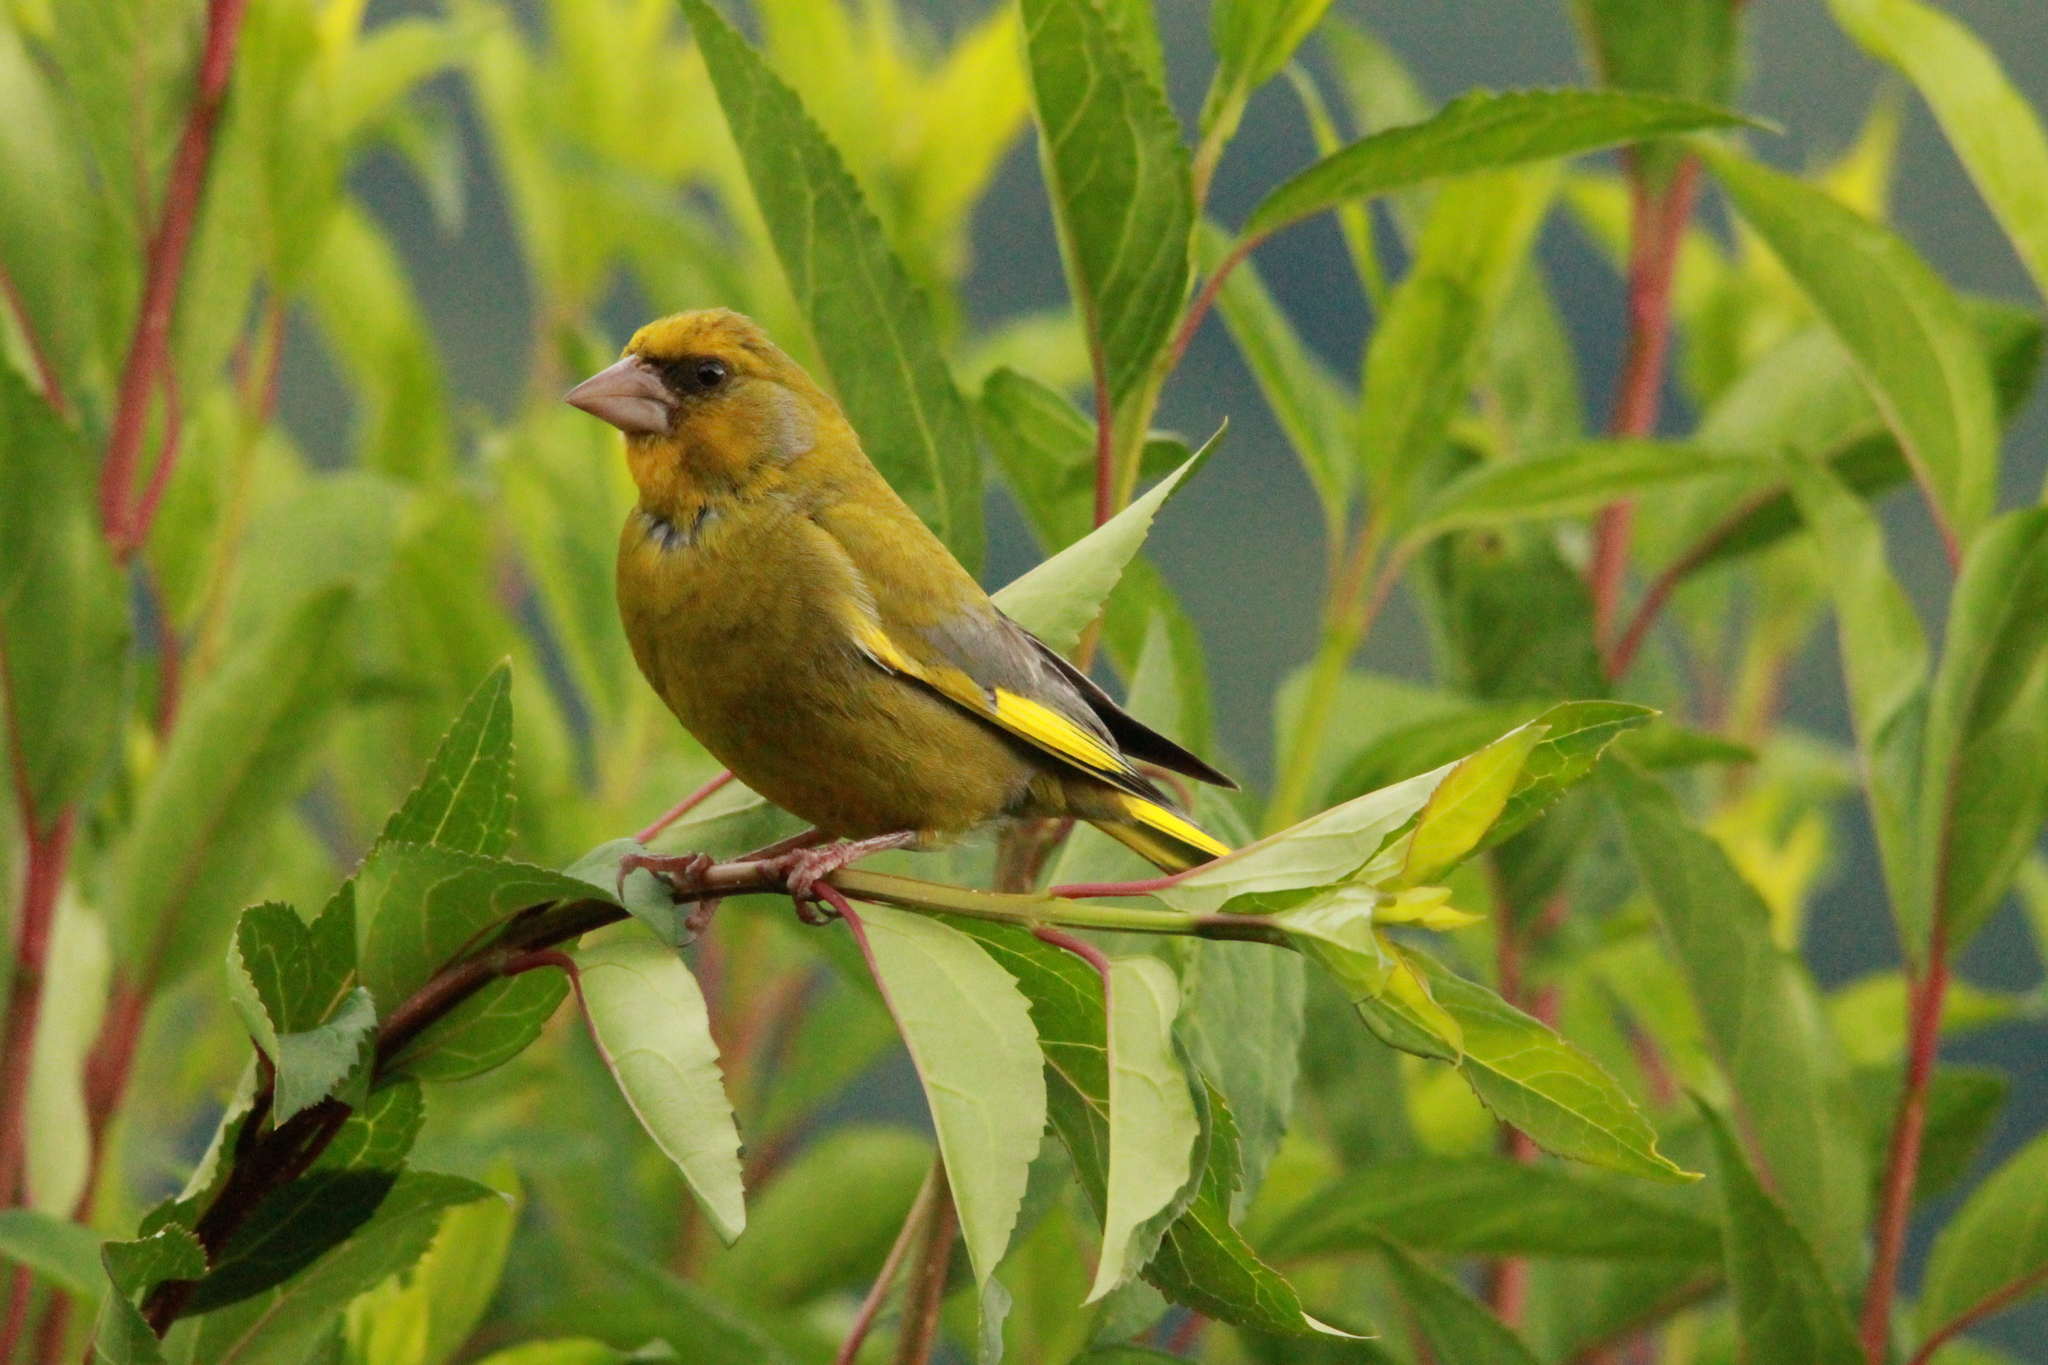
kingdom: Plantae
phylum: Tracheophyta
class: Liliopsida
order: Poales
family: Poaceae
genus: Chloris
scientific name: Chloris chloris
